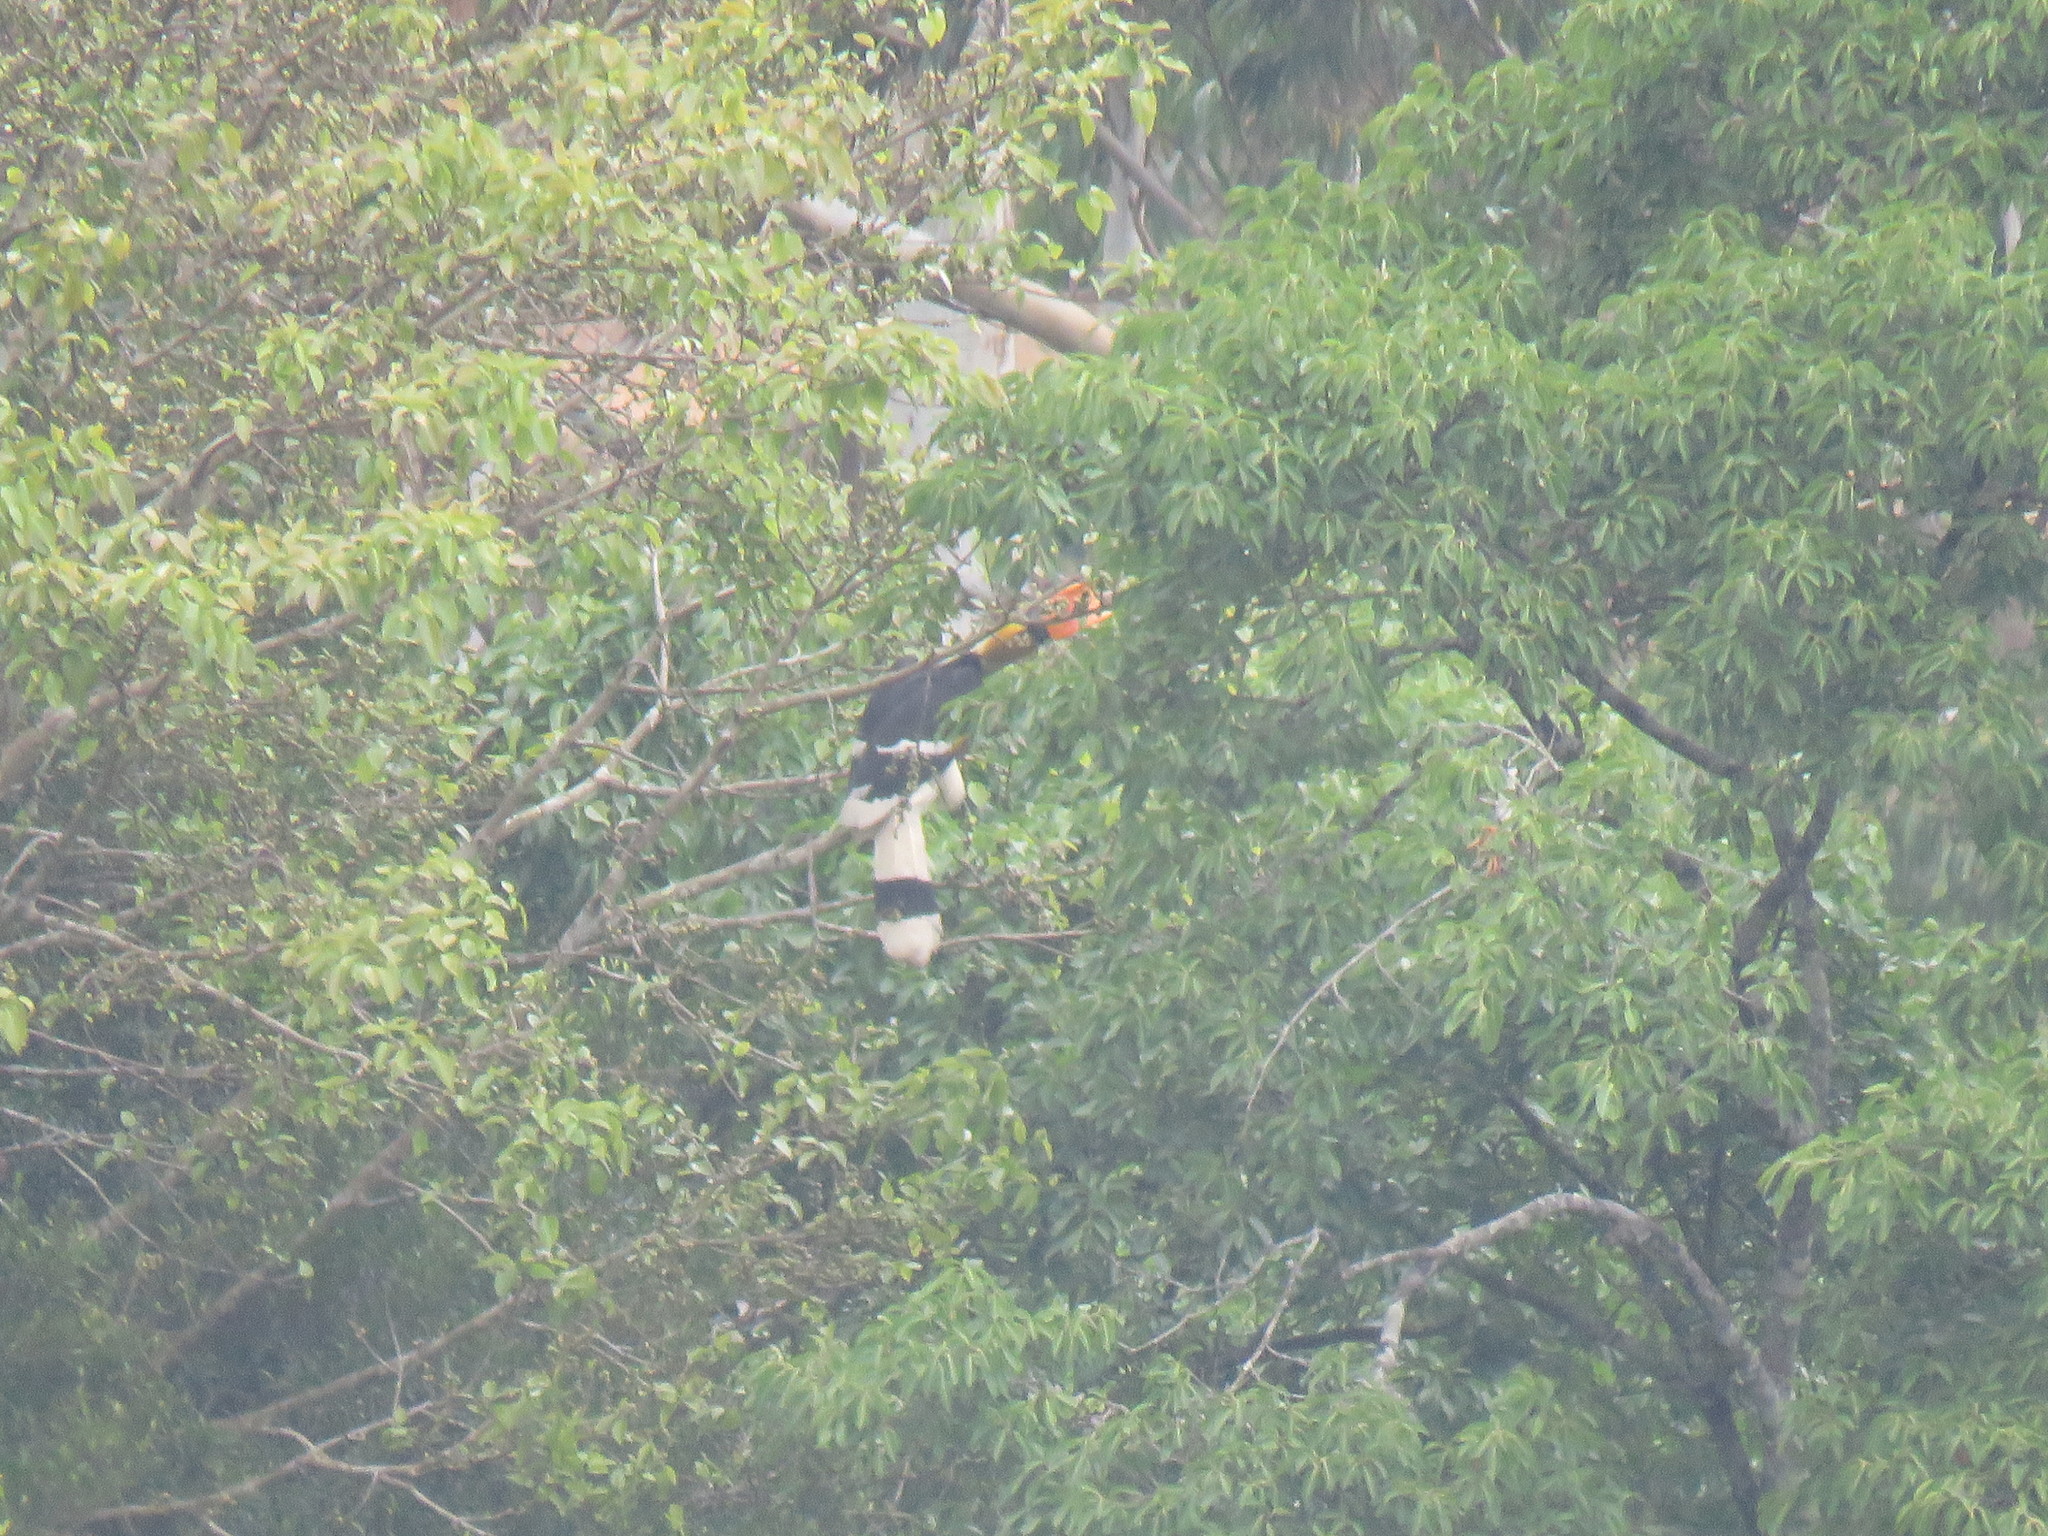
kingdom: Animalia
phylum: Chordata
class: Aves
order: Bucerotiformes
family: Bucerotidae
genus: Buceros
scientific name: Buceros bicornis
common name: Great hornbill
